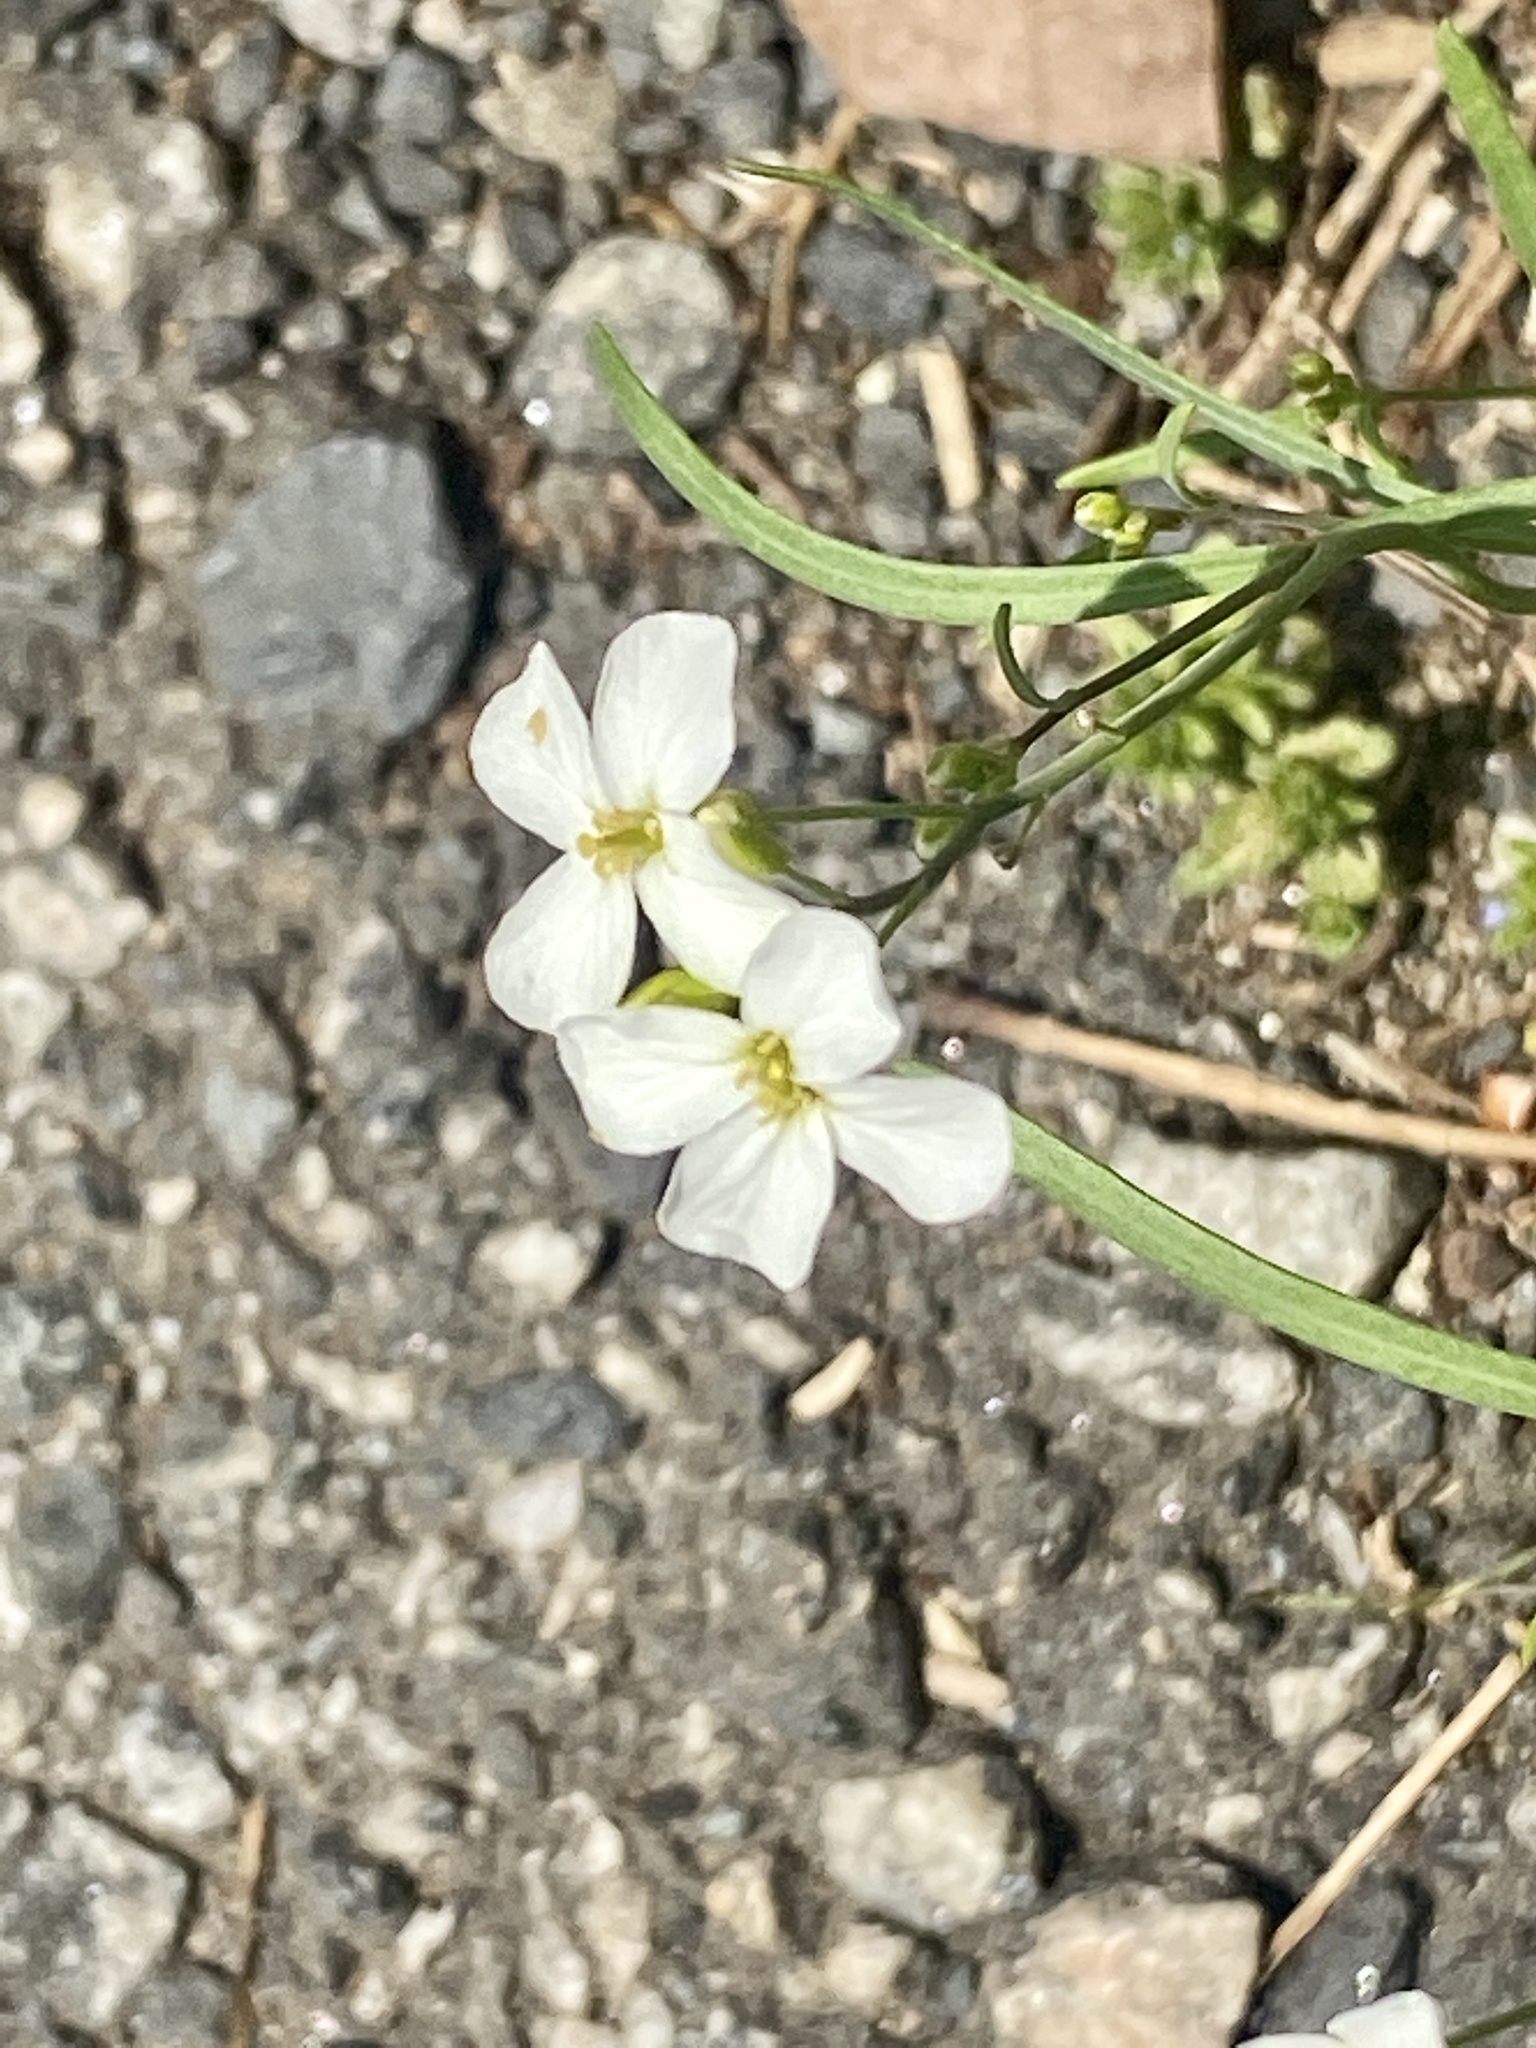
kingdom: Plantae
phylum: Tracheophyta
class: Magnoliopsida
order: Brassicales
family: Brassicaceae
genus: Arabidopsis
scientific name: Arabidopsis lyrata
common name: Lyrate rockcress
